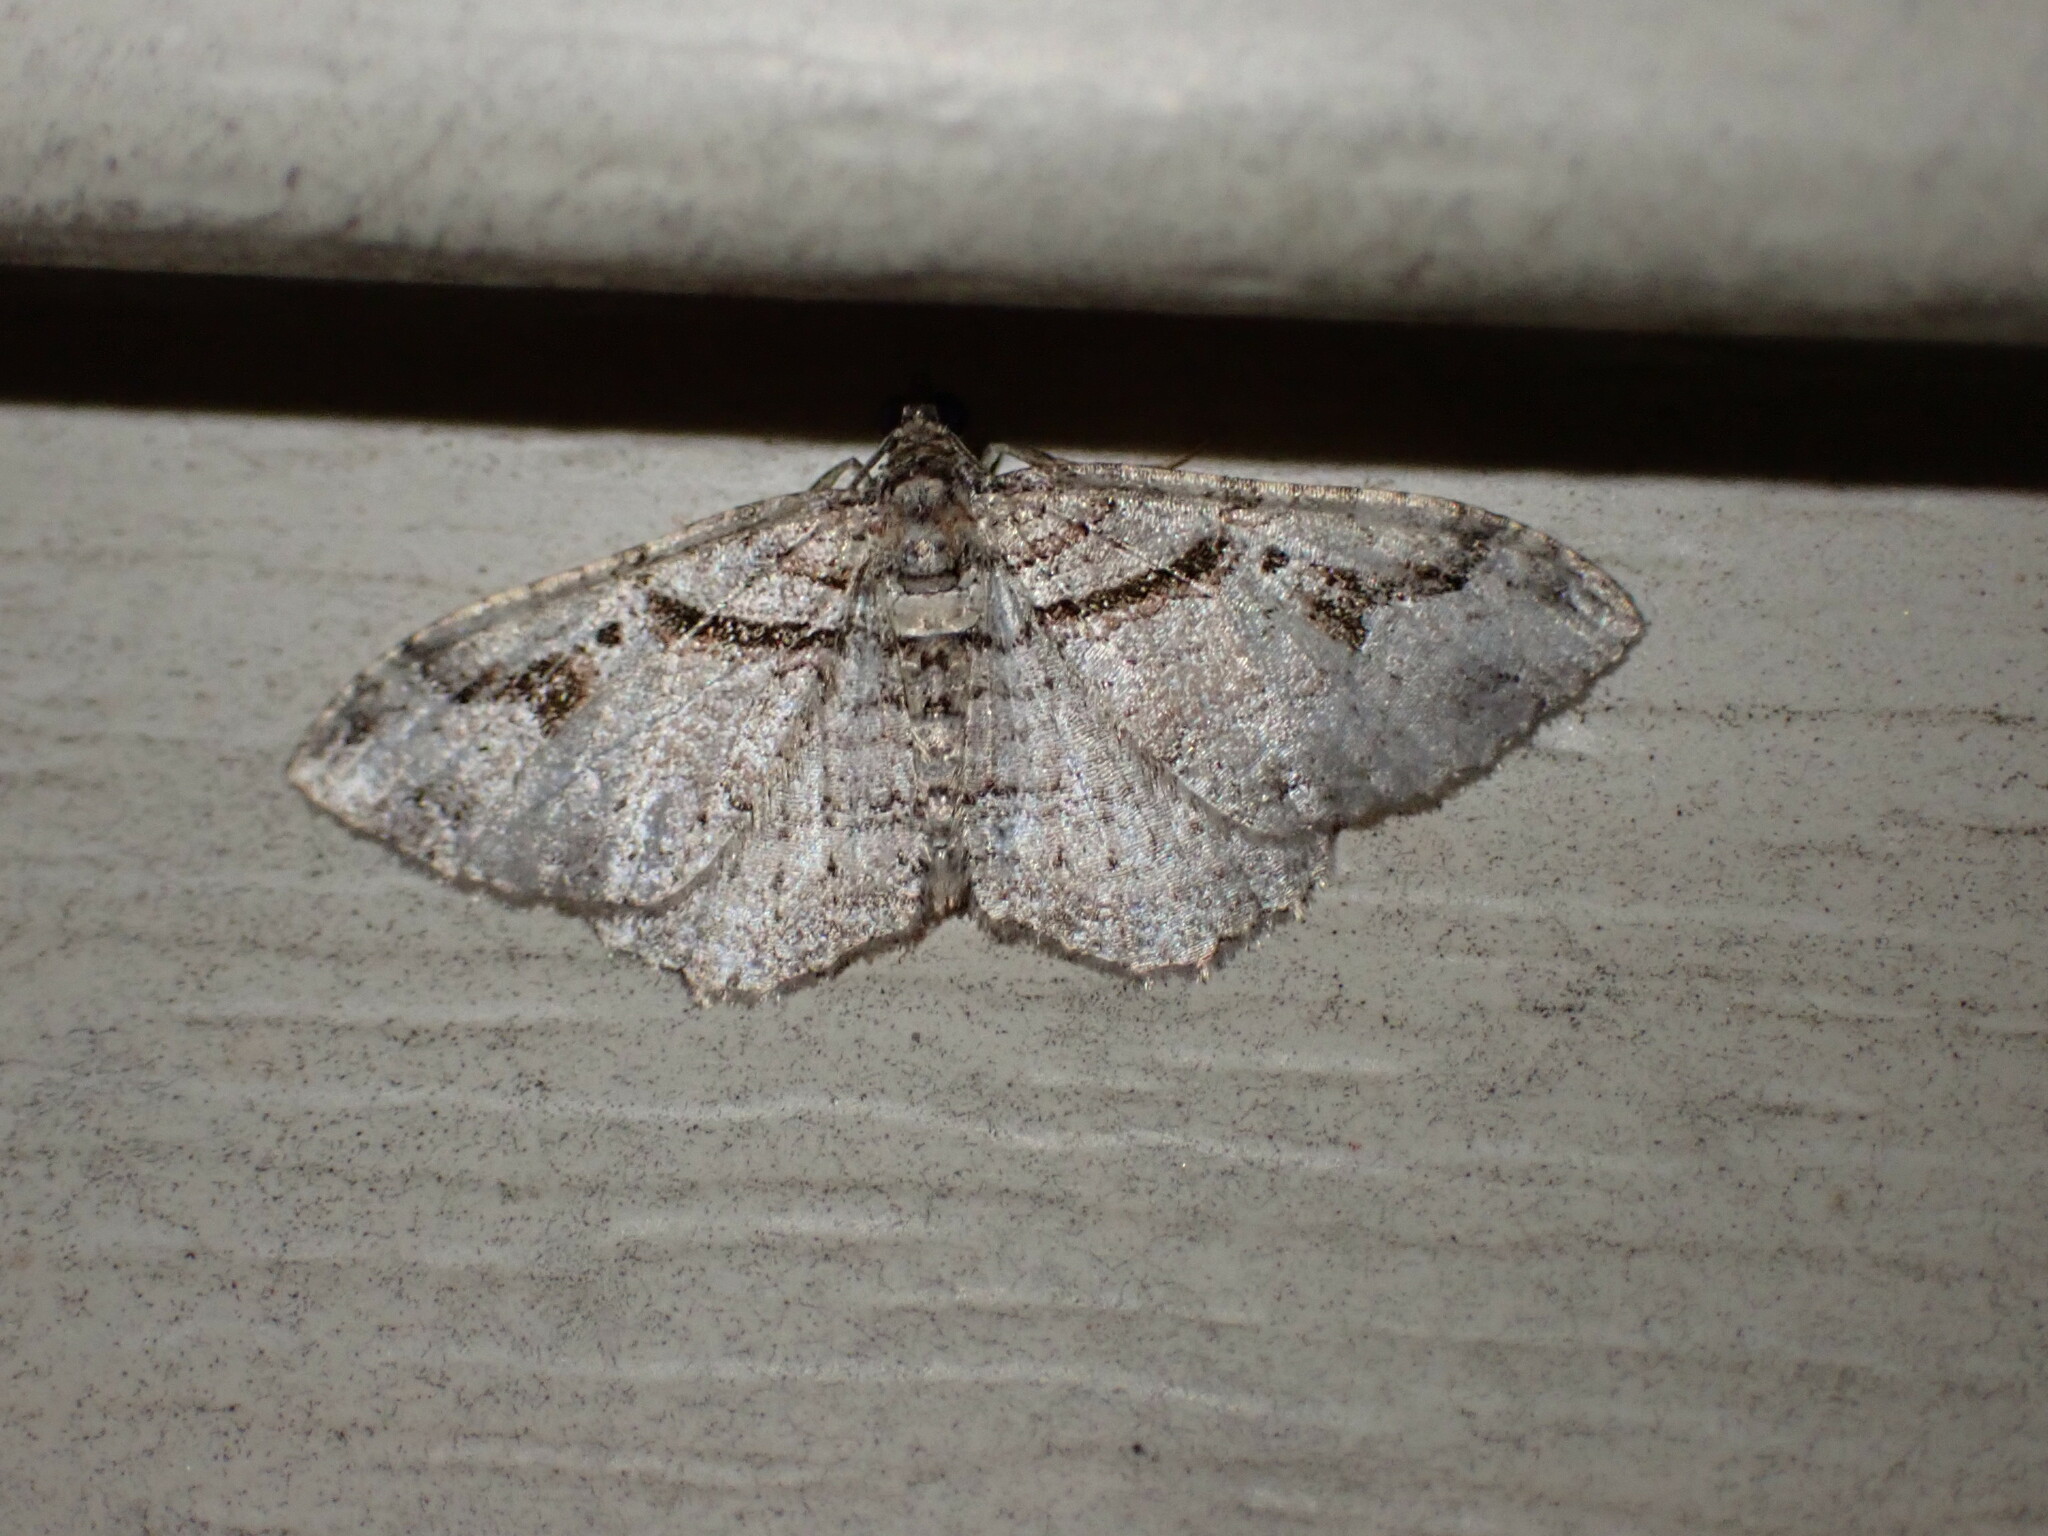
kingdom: Animalia
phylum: Arthropoda
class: Insecta
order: Lepidoptera
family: Geometridae
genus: Costaconvexa
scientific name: Costaconvexa centrostrigaria
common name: Bent-line carpet
